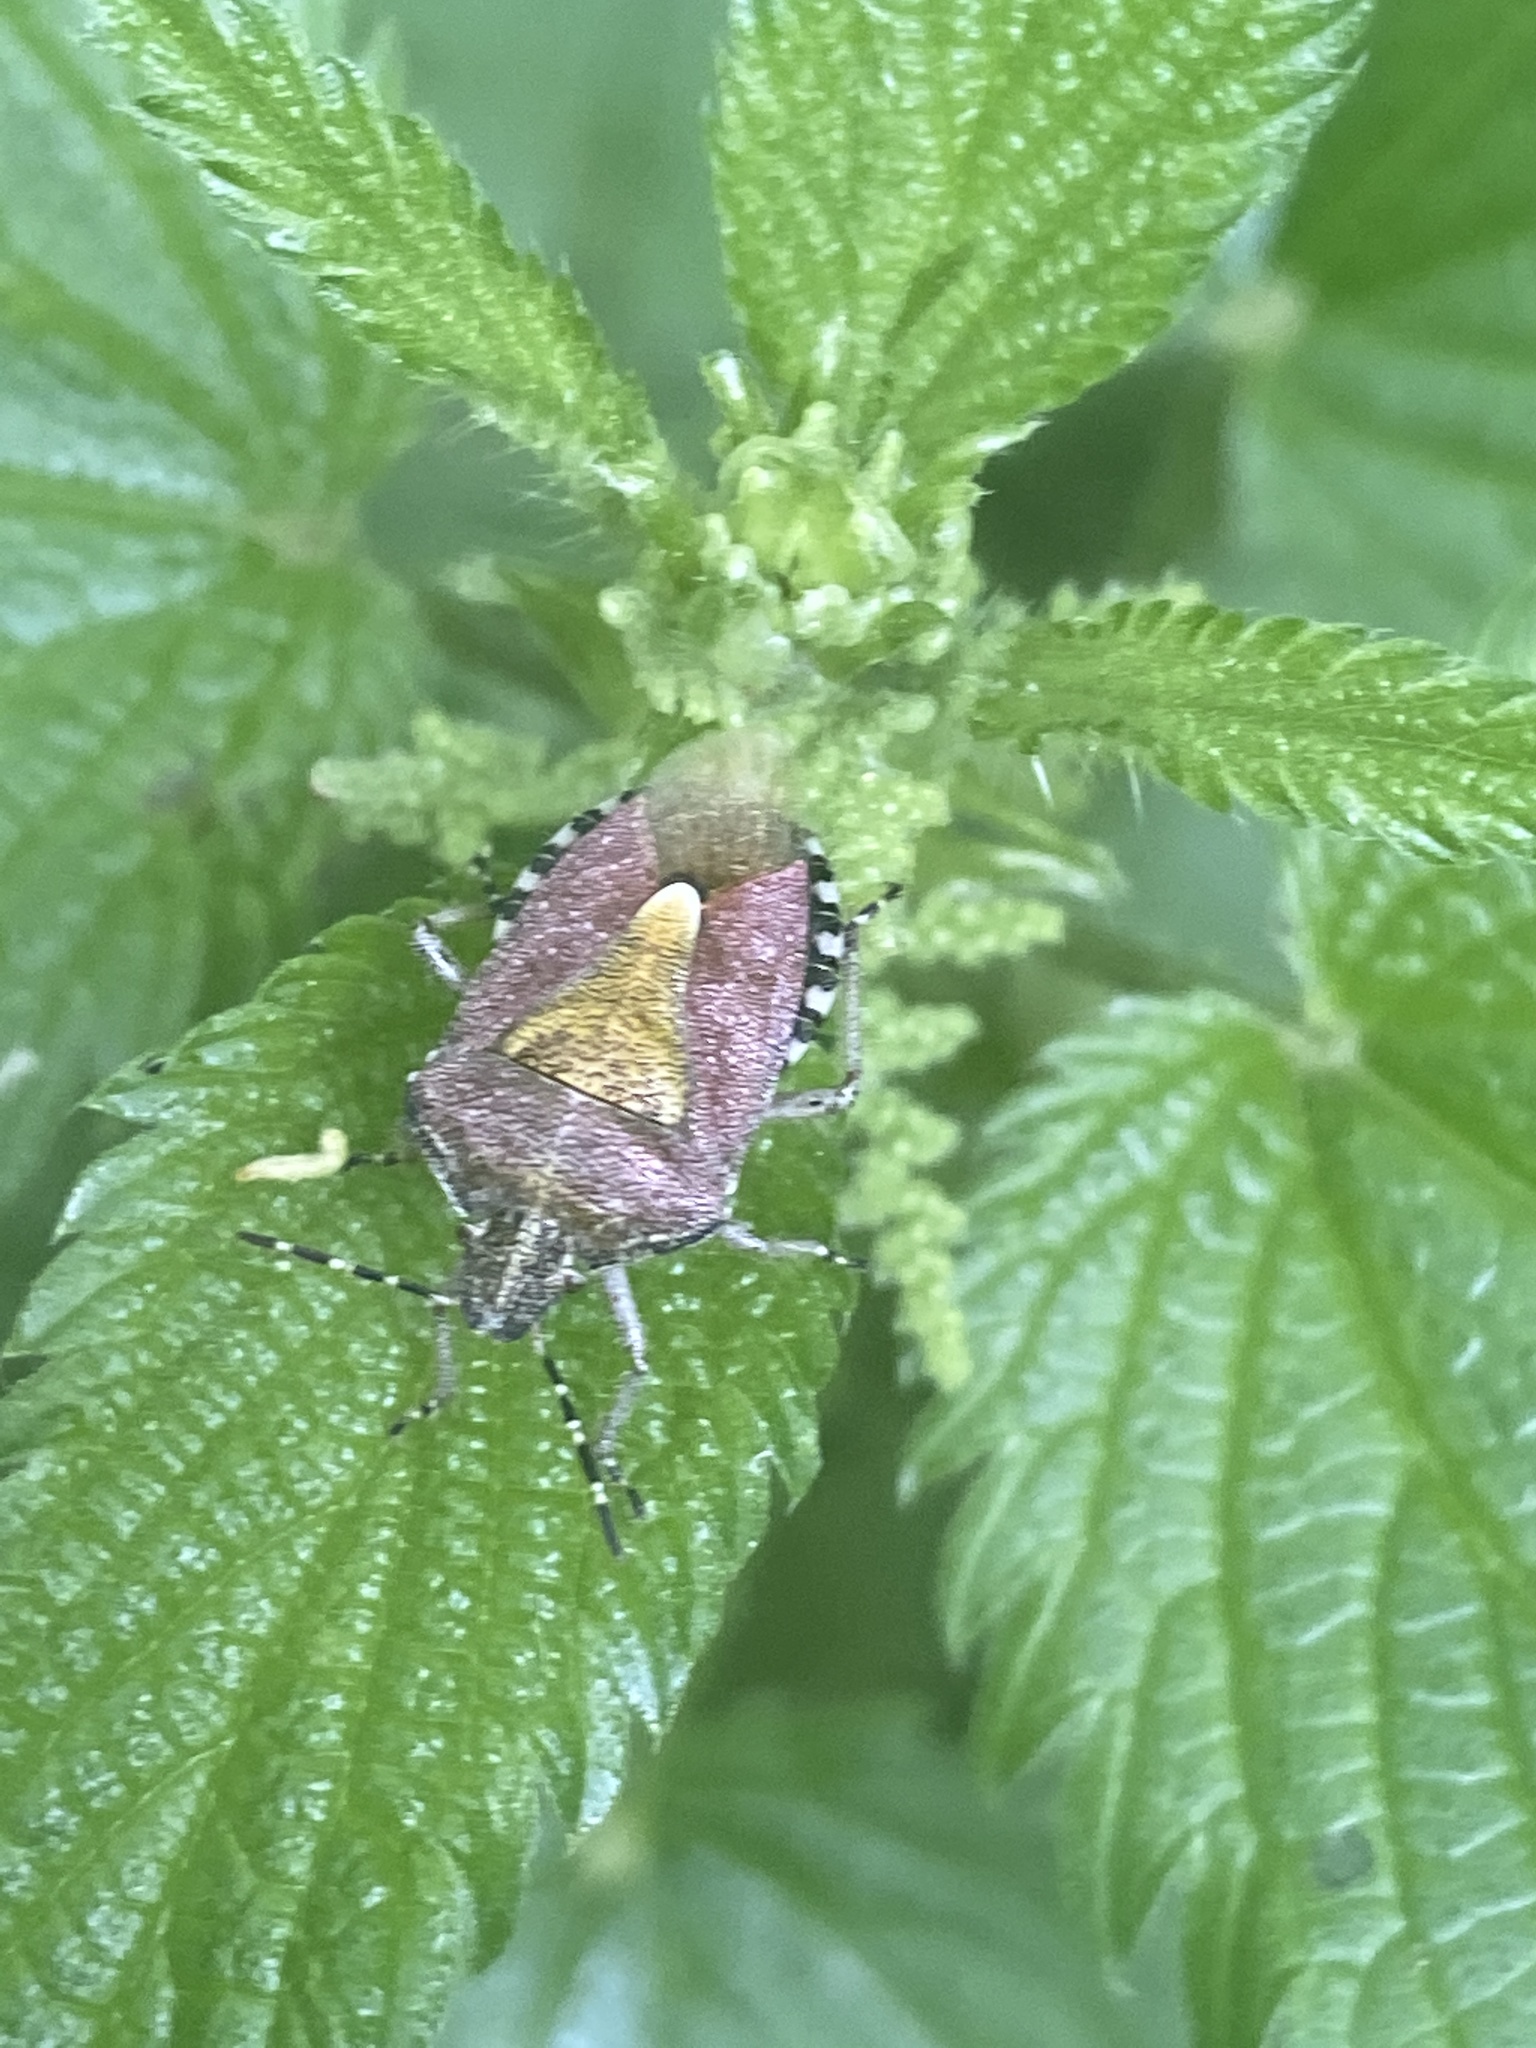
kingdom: Animalia
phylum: Arthropoda
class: Insecta
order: Hemiptera
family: Pentatomidae
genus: Dolycoris
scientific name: Dolycoris baccarum
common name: Sloe bug
